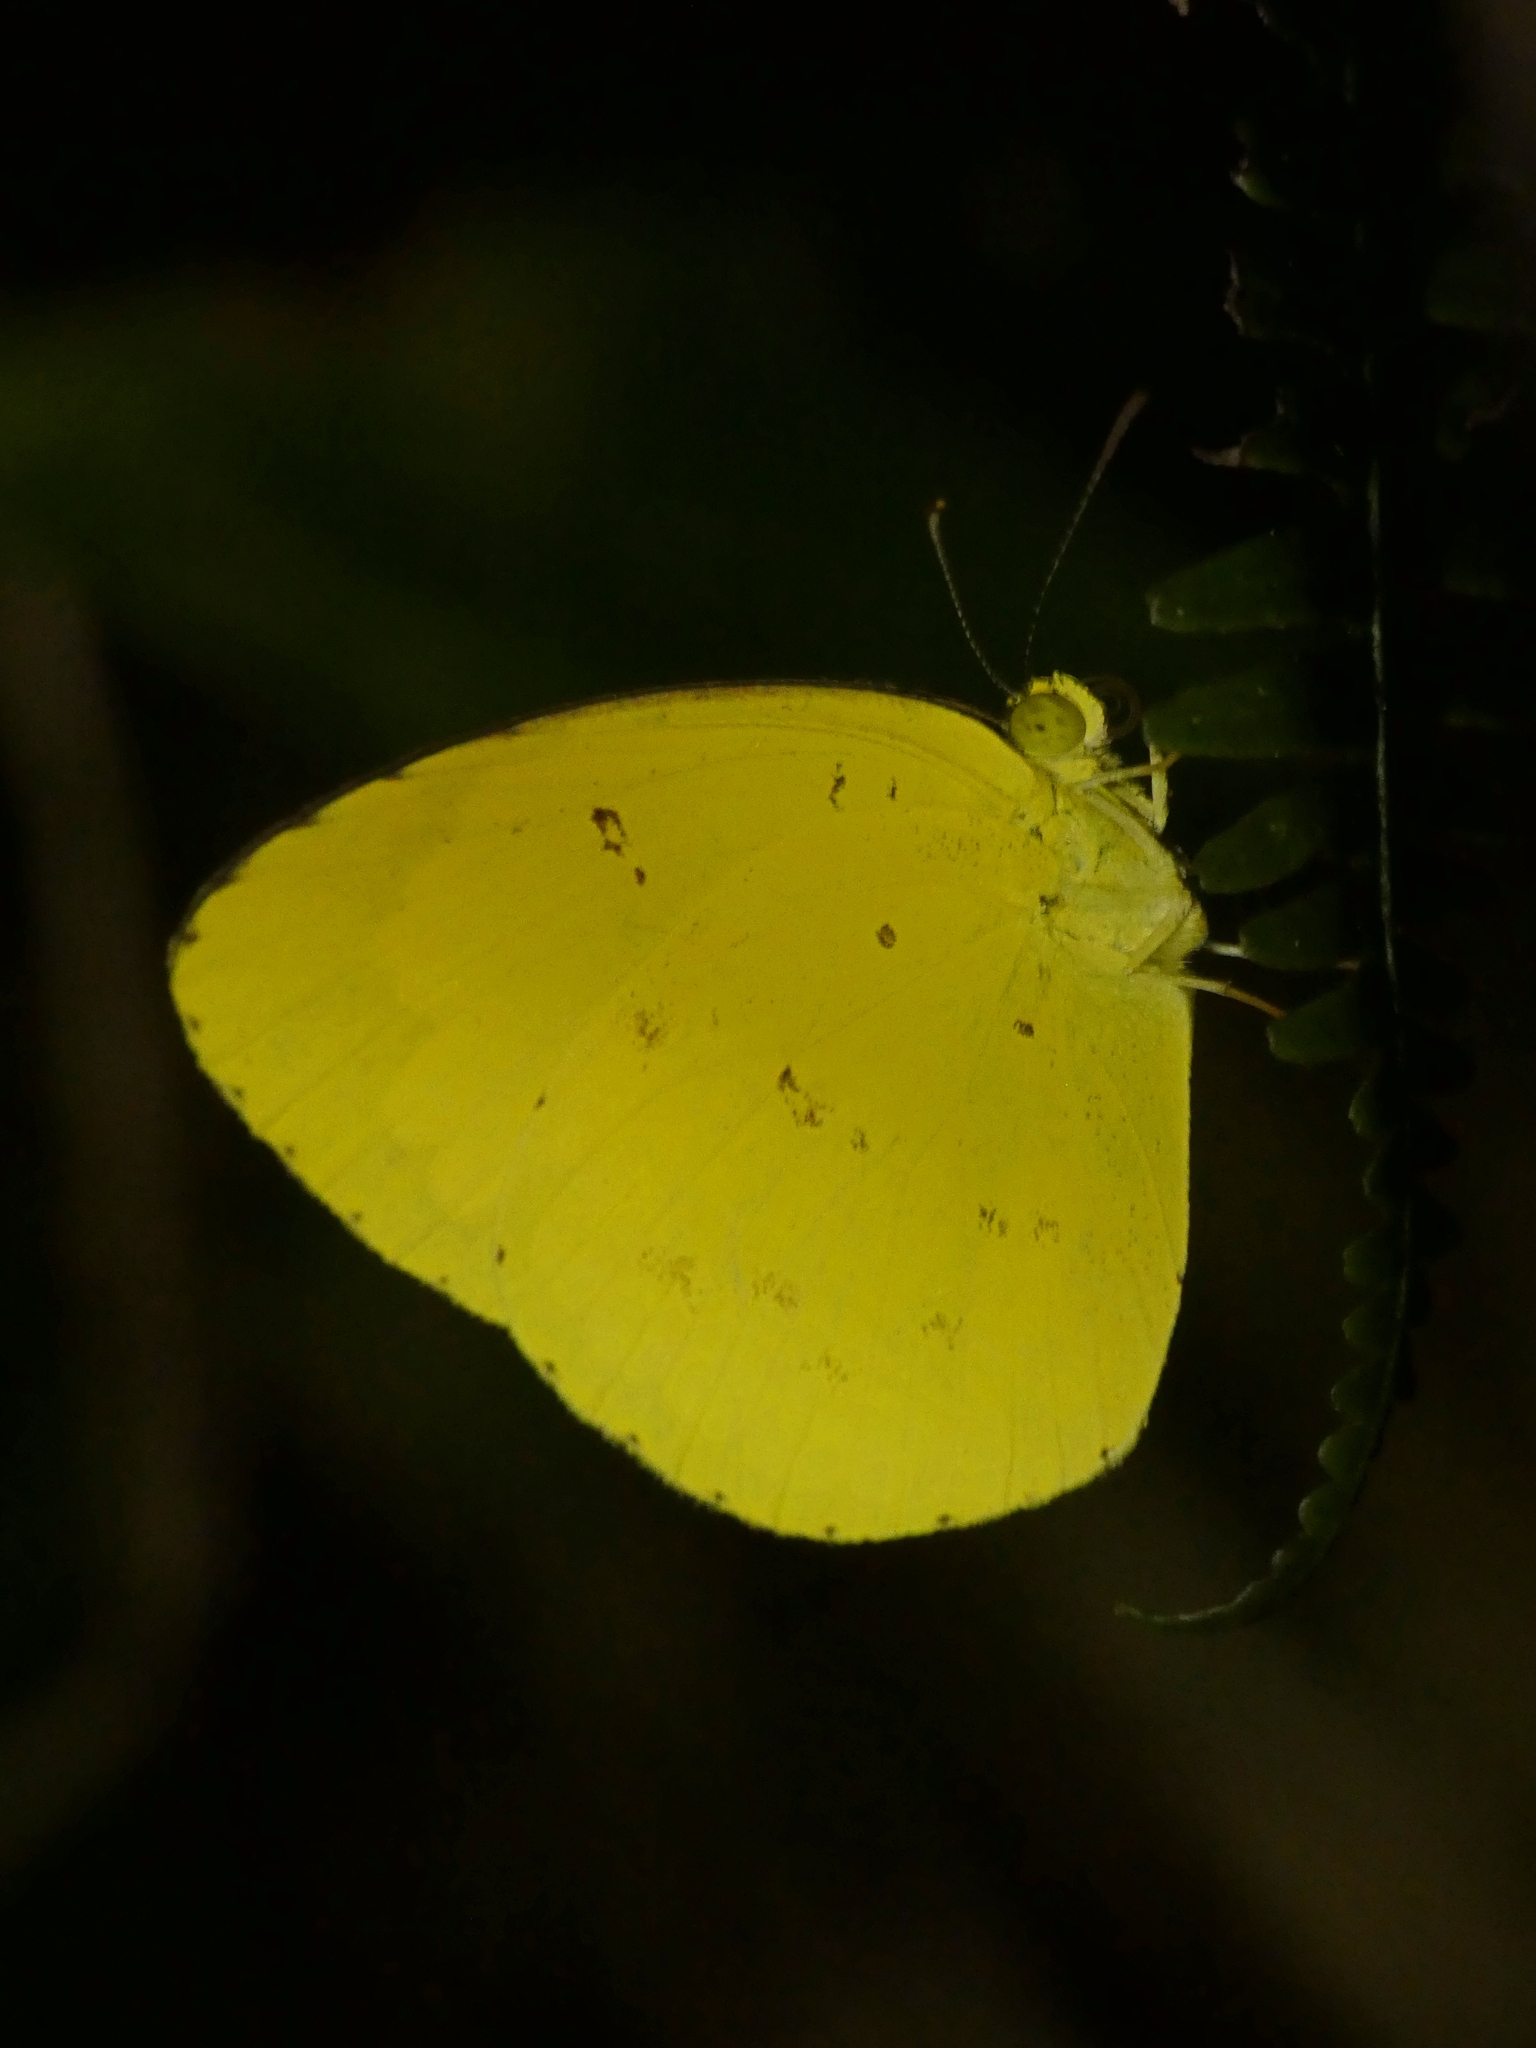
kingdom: Animalia
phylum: Arthropoda
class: Insecta
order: Lepidoptera
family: Pieridae
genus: Eurema
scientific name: Eurema hecabe
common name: Pale grass yellow
